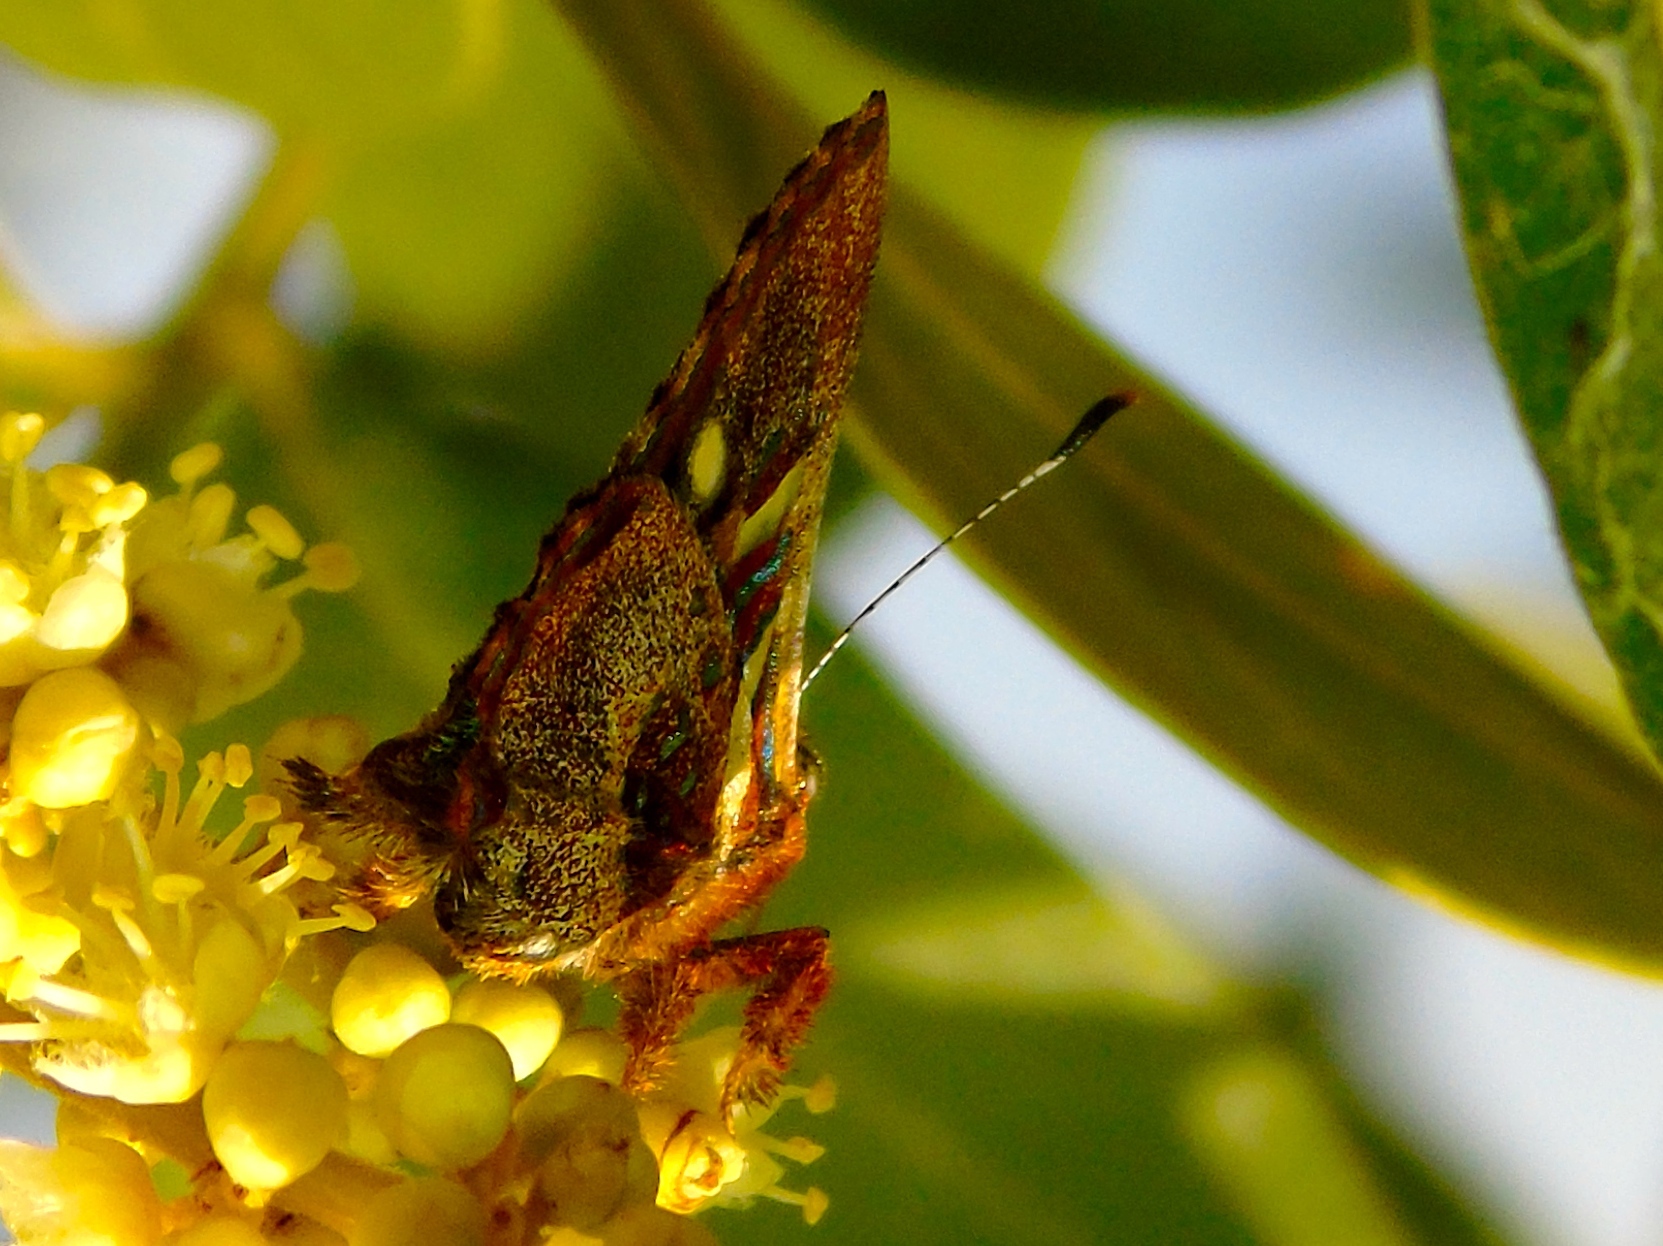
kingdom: Animalia
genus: Anteros
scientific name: Anteros carausius
